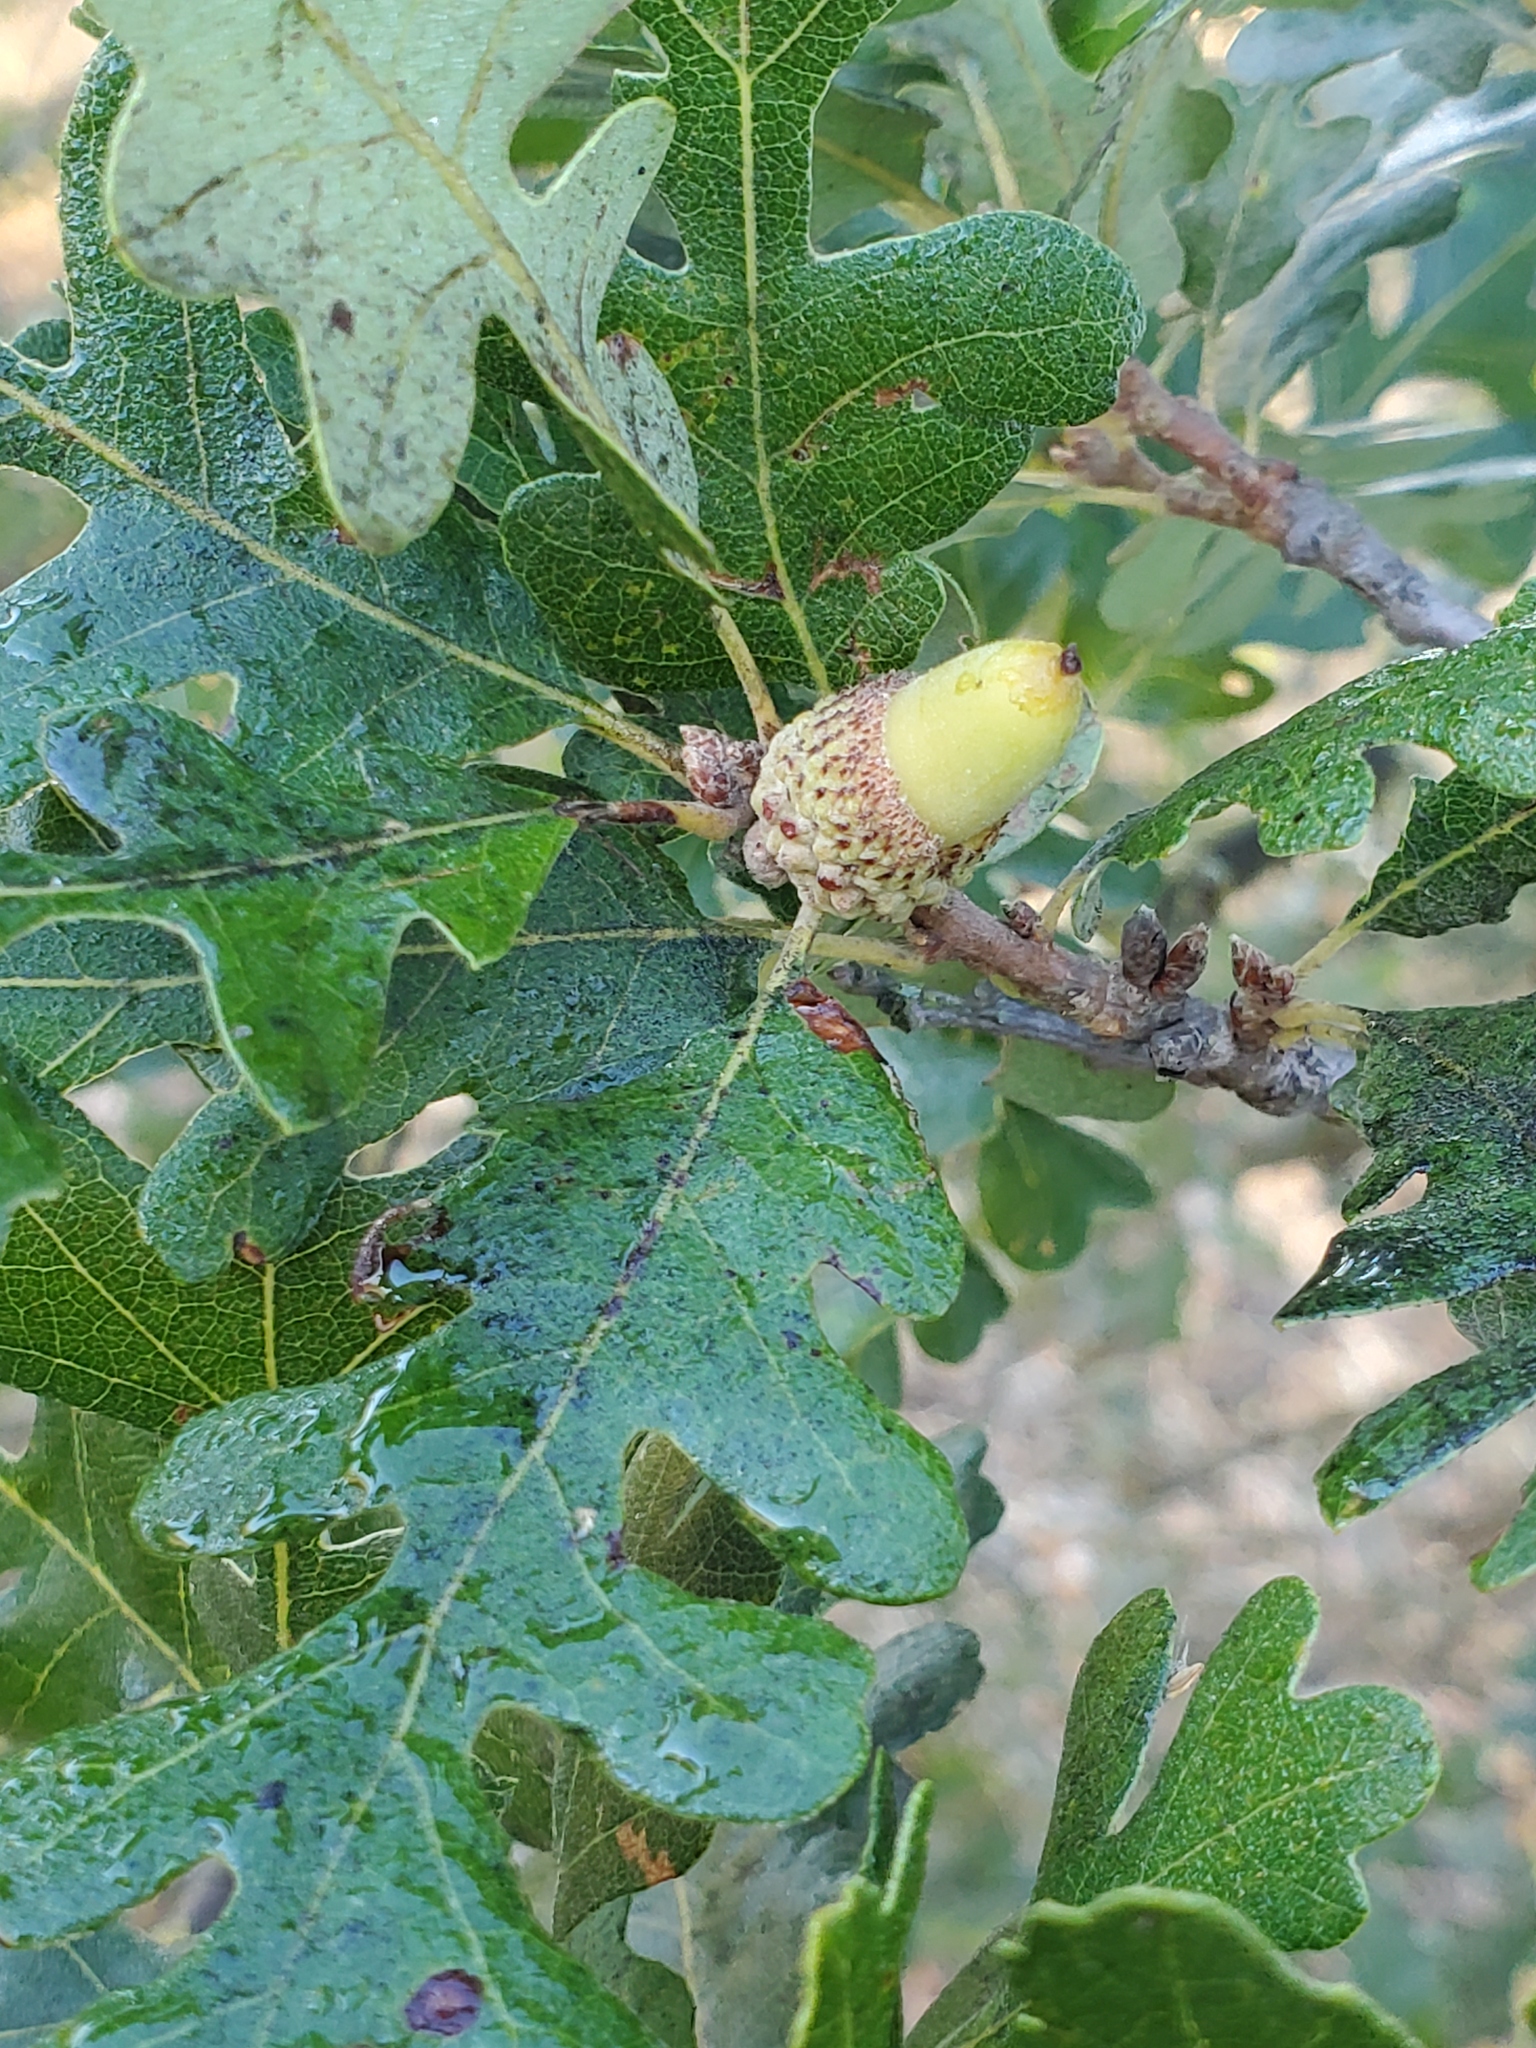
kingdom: Plantae
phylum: Tracheophyta
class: Magnoliopsida
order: Fagales
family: Fagaceae
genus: Quercus
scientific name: Quercus lobata
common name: Valley oak
